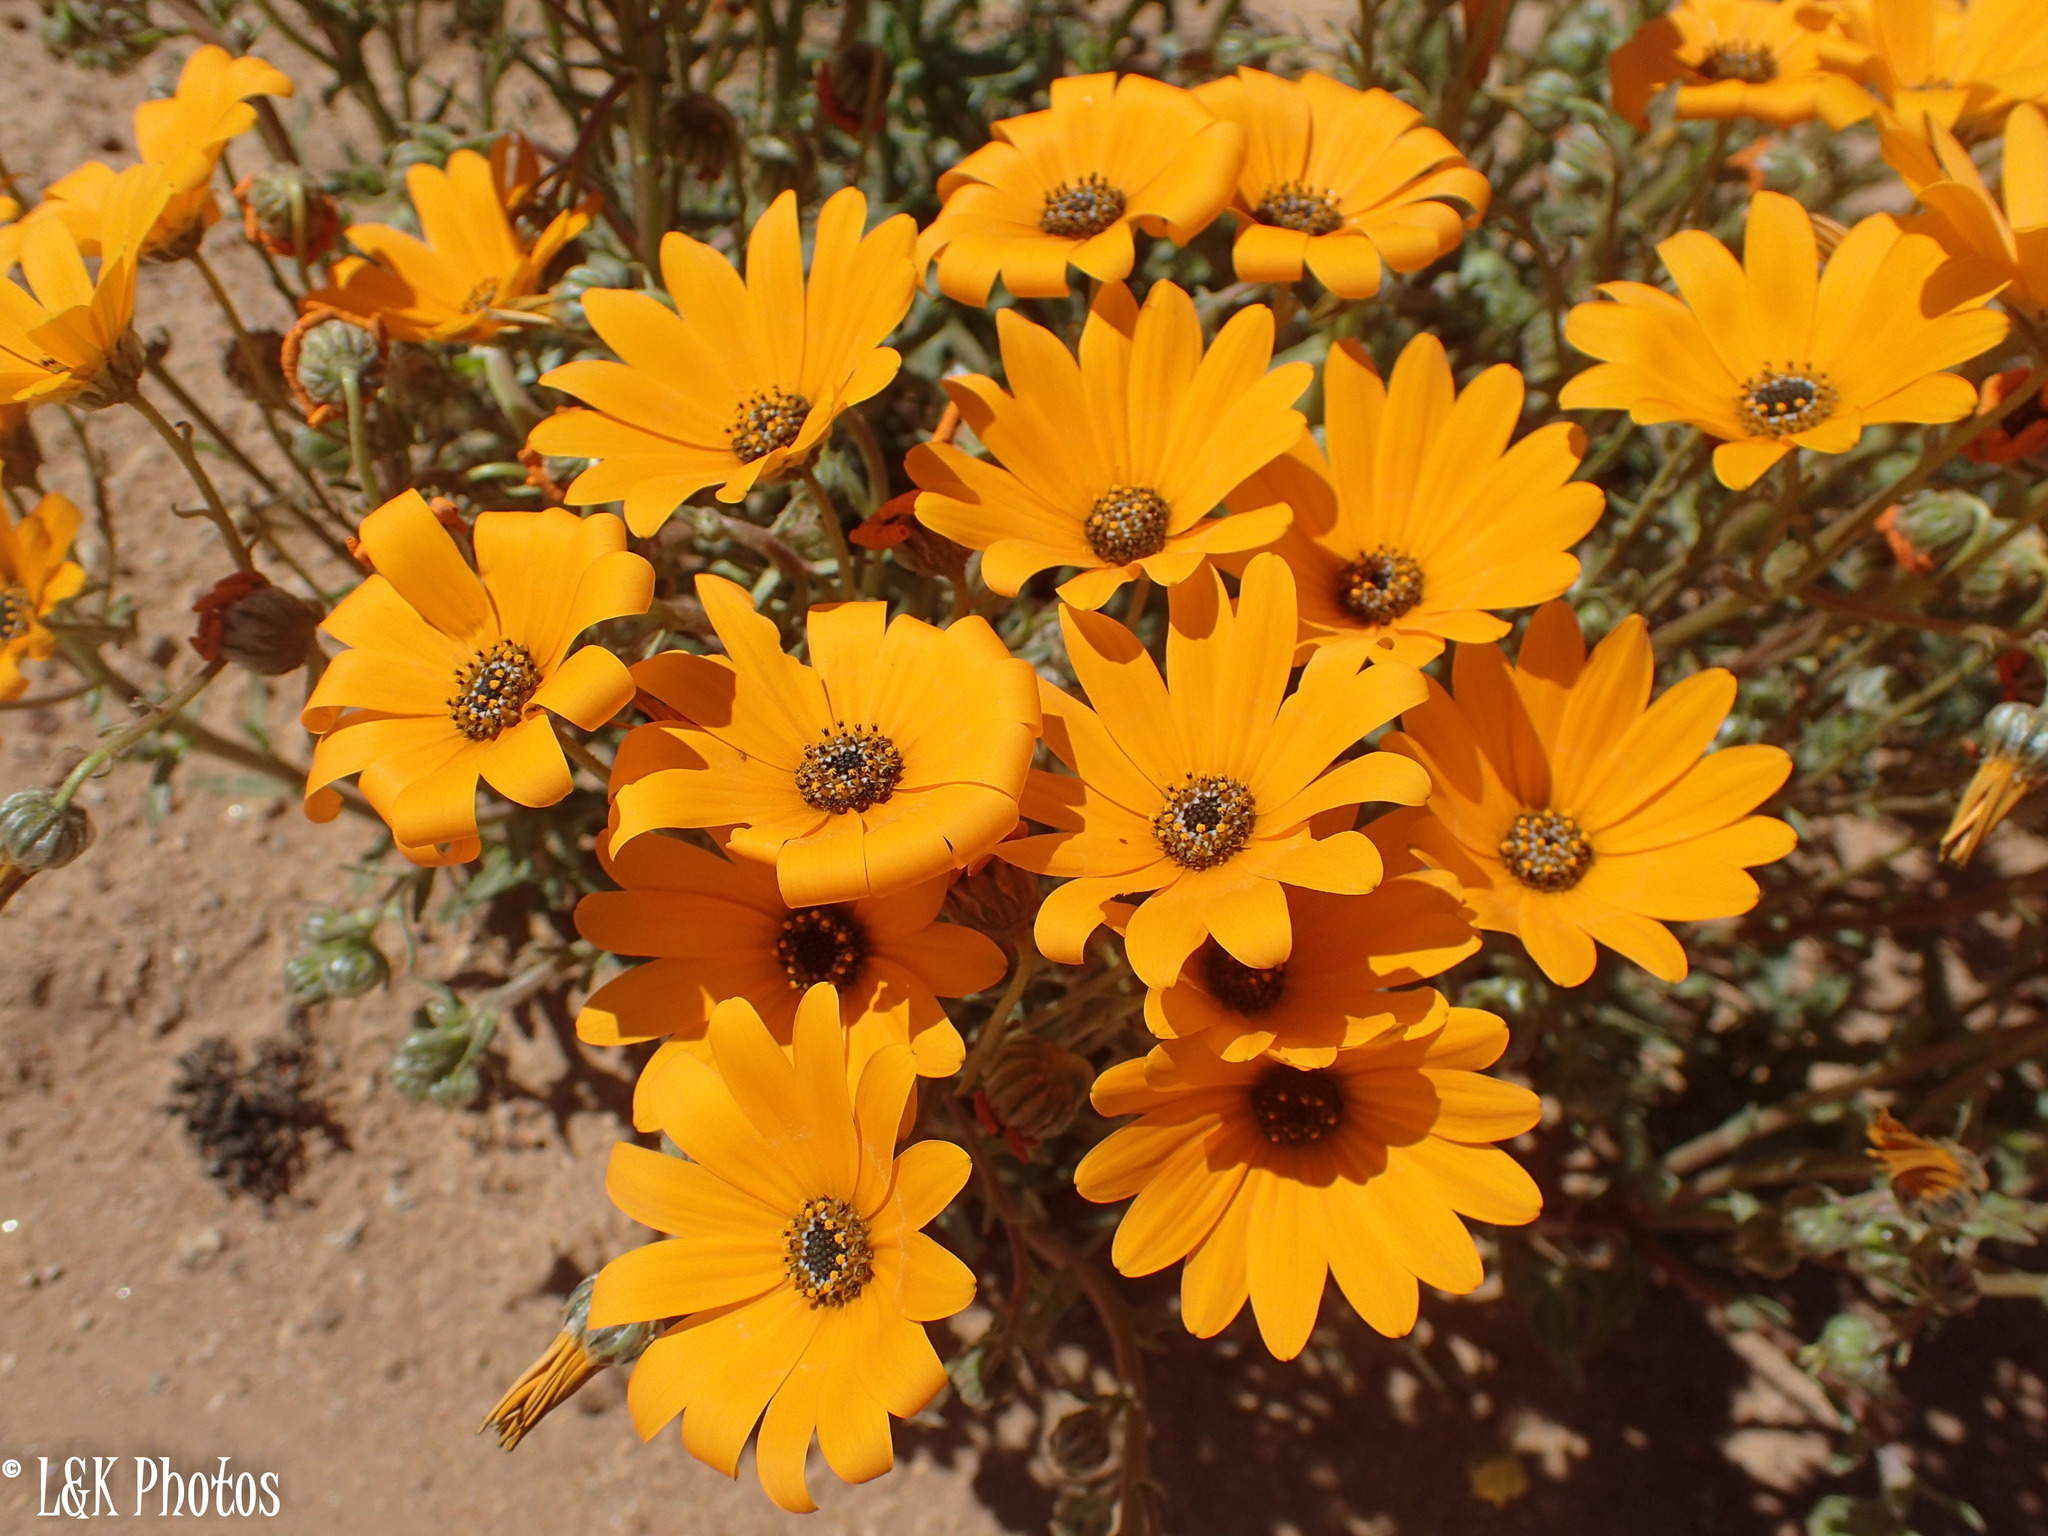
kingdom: Plantae
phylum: Tracheophyta
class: Magnoliopsida
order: Asterales
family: Asteraceae
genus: Osteospermum
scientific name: Osteospermum hyoseroides
